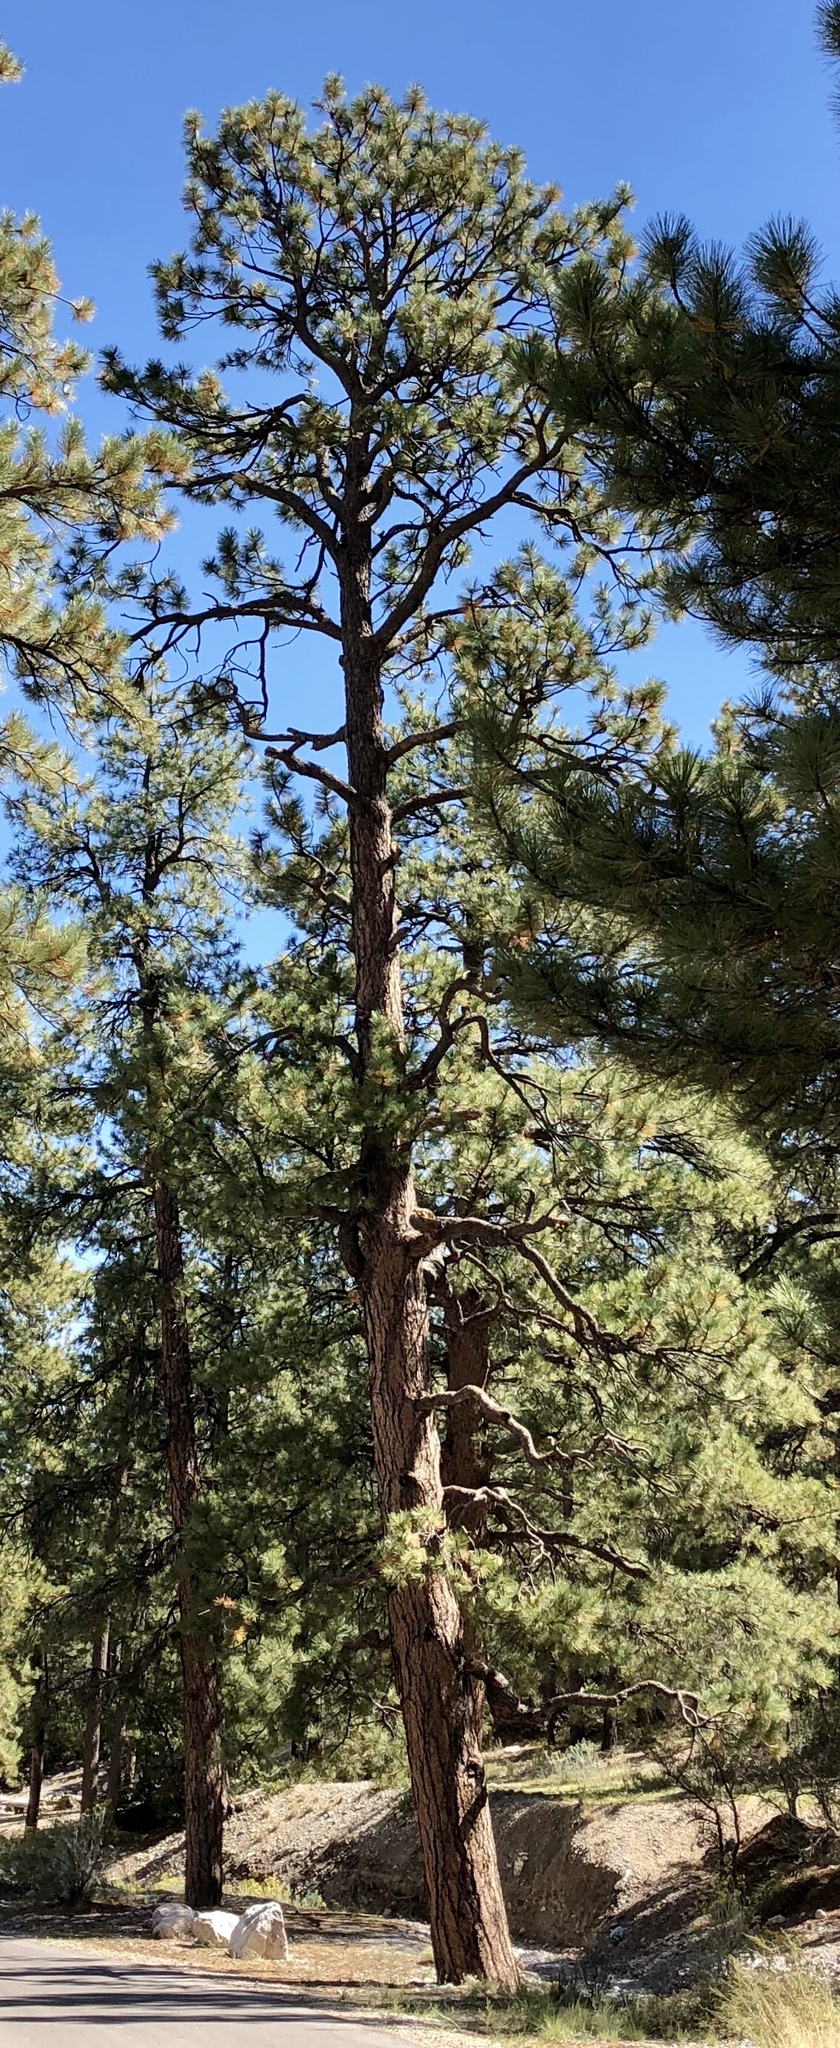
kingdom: Plantae
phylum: Tracheophyta
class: Pinopsida
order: Pinales
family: Pinaceae
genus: Pinus
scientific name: Pinus ponderosa
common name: Western yellow-pine
